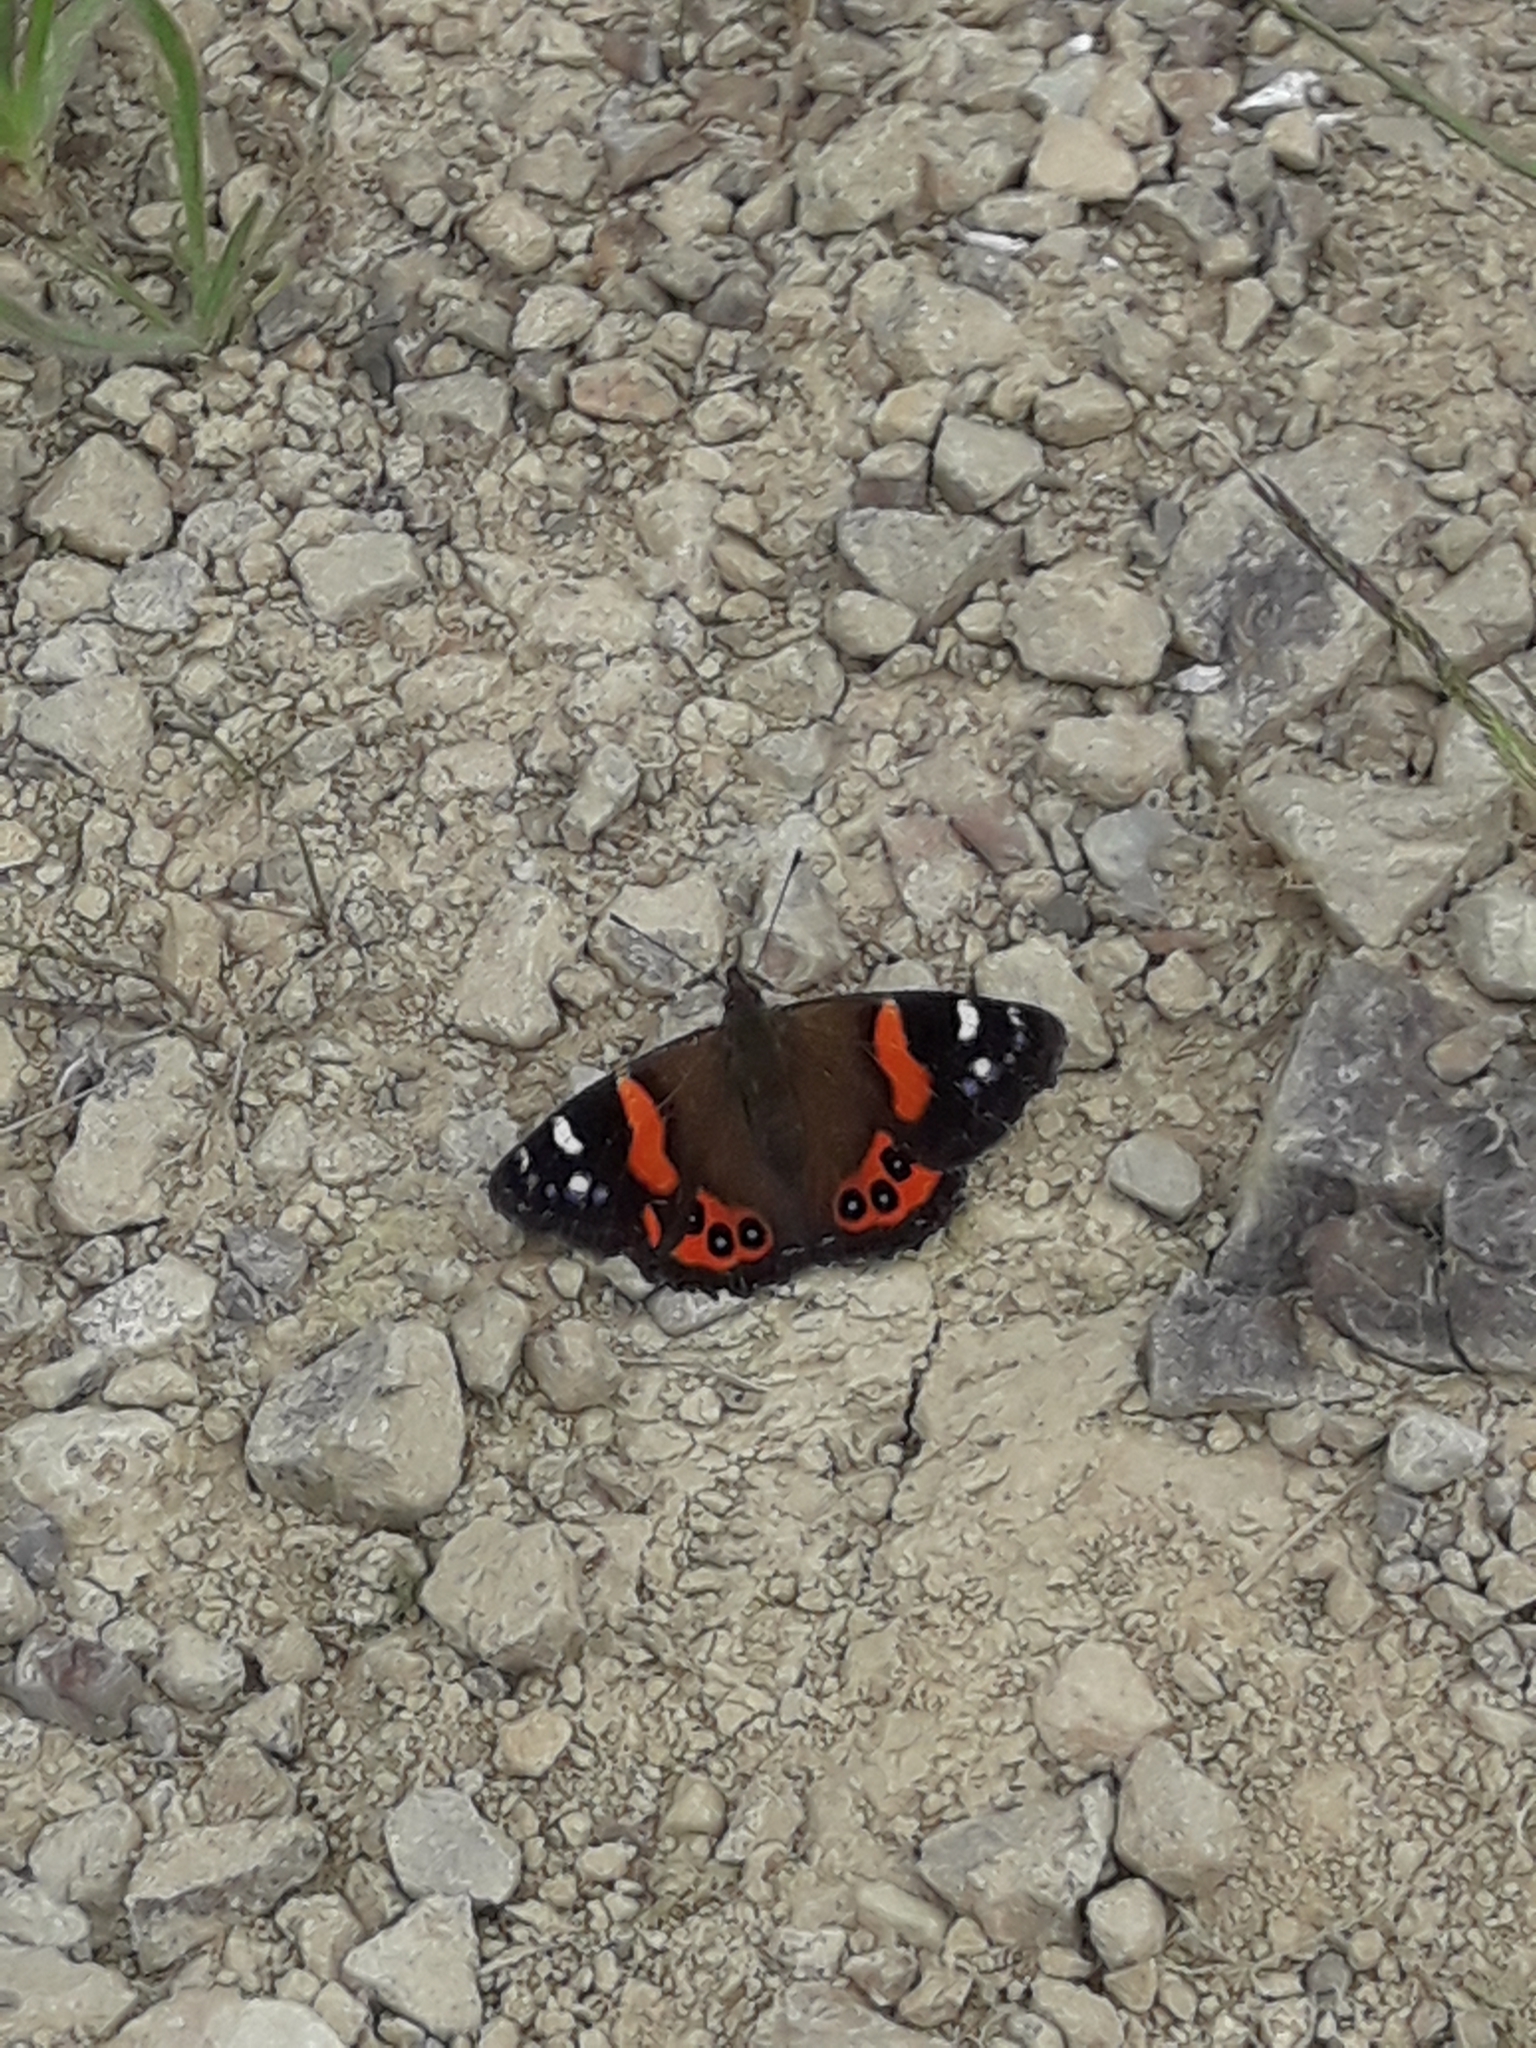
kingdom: Animalia
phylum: Arthropoda
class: Insecta
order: Lepidoptera
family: Nymphalidae
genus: Vanessa
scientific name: Vanessa gonerilla
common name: New zealand red admiral
